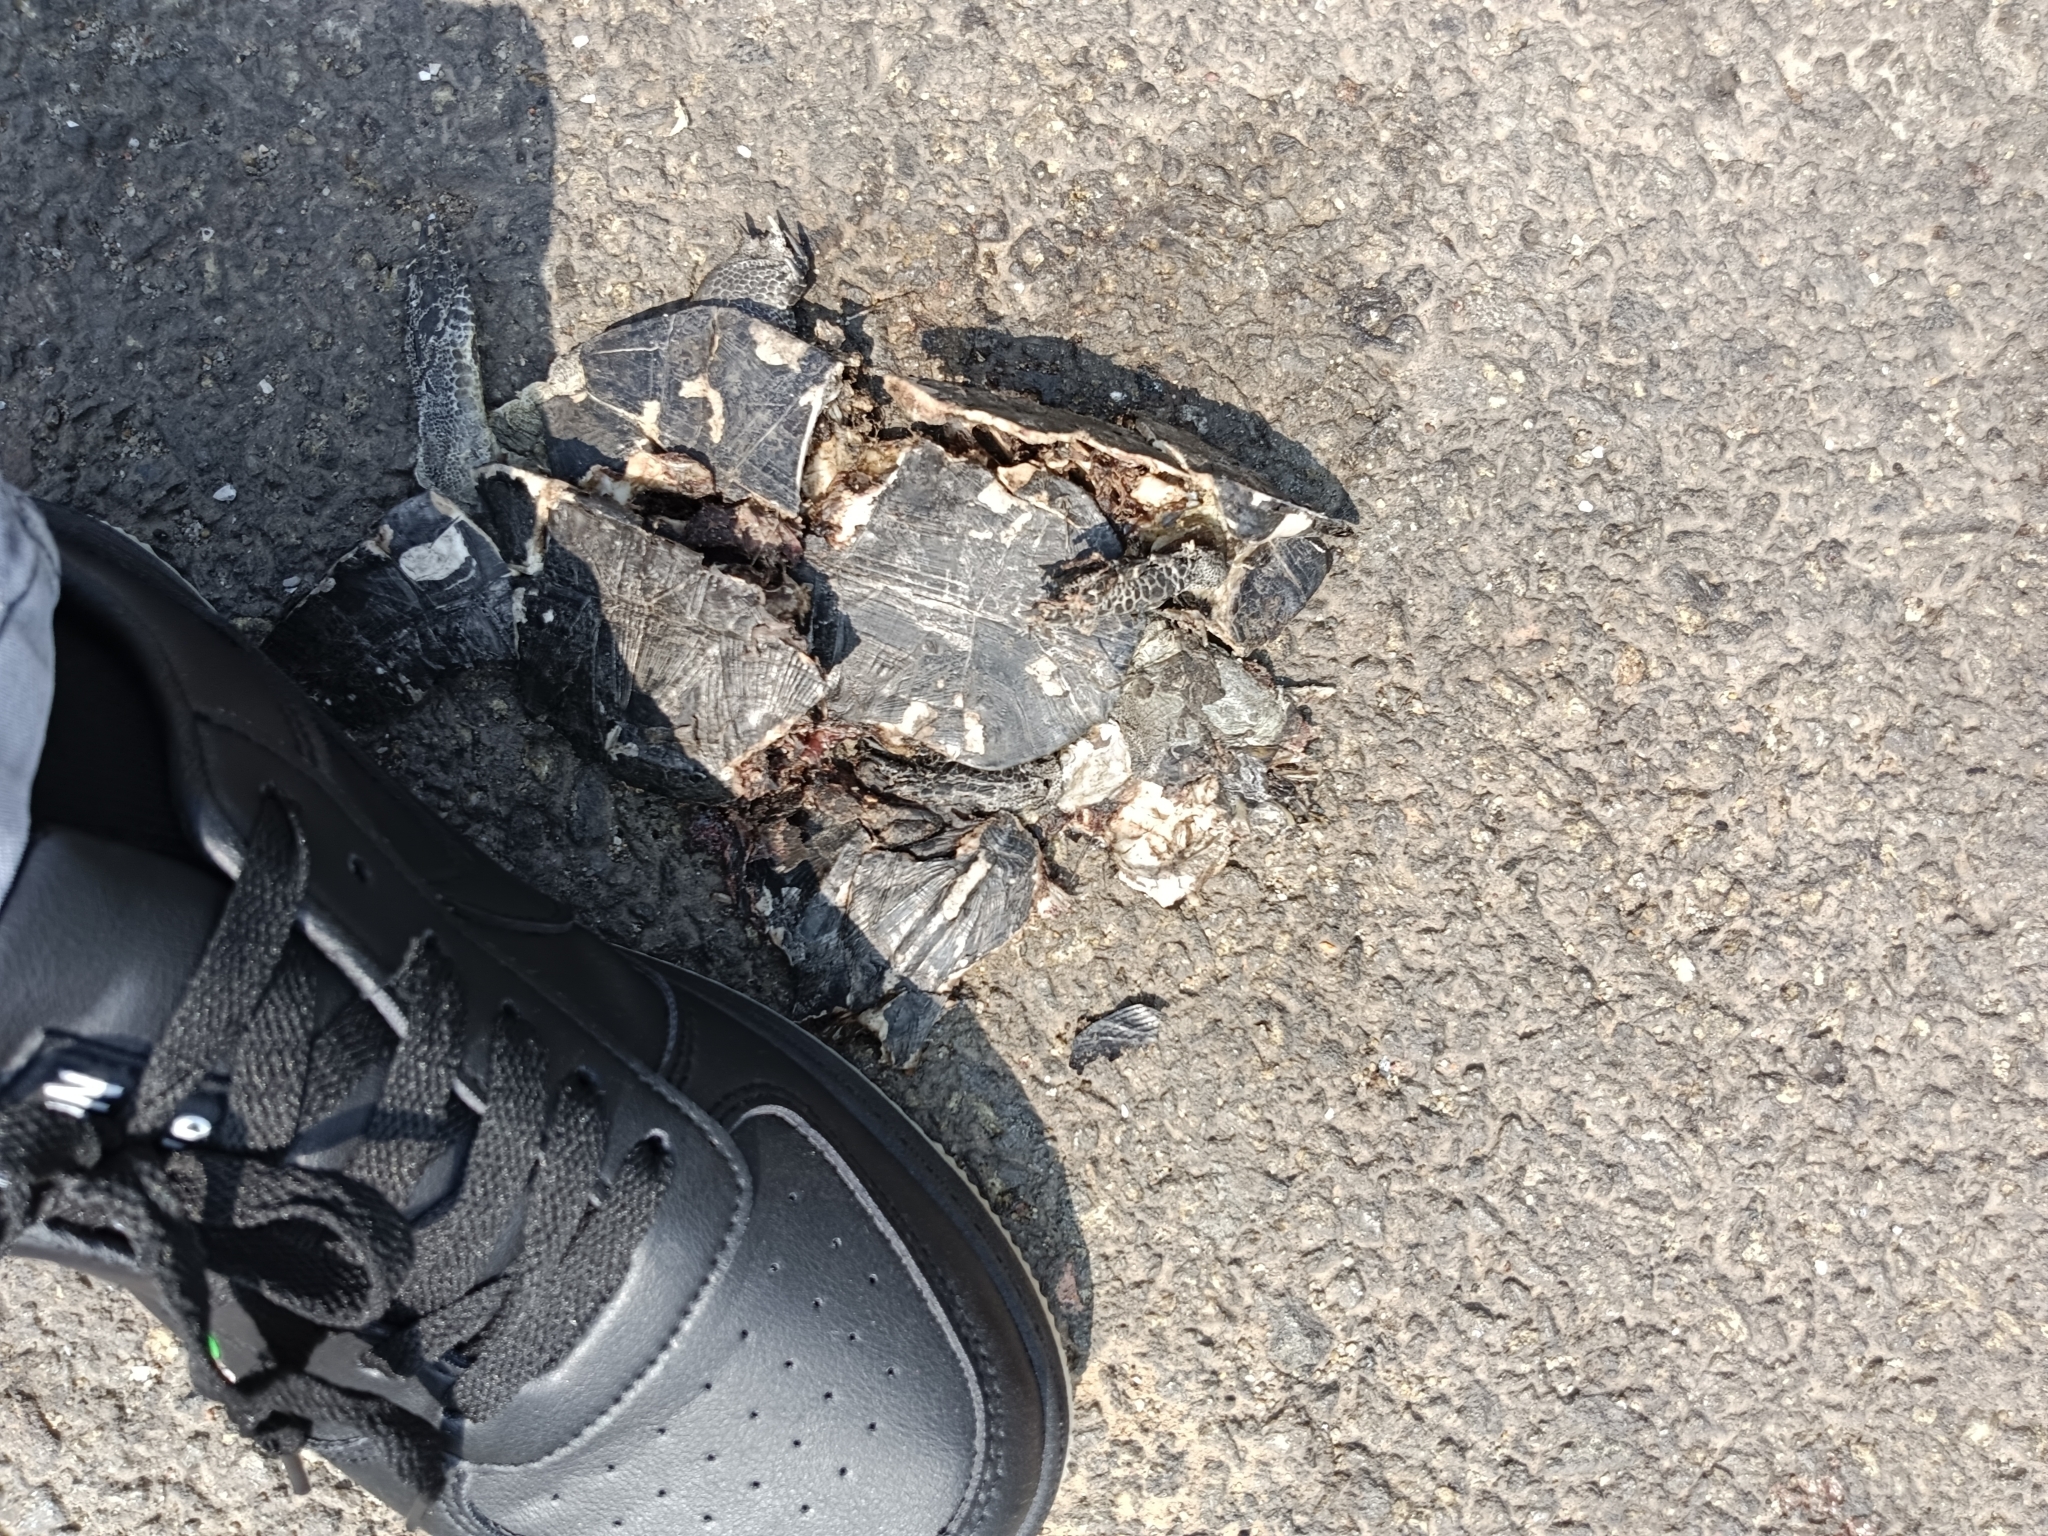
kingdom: Animalia
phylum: Chordata
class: Testudines
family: Geoemydidae
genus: Melanochelys
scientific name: Melanochelys trijuga
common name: Indian black turtle
